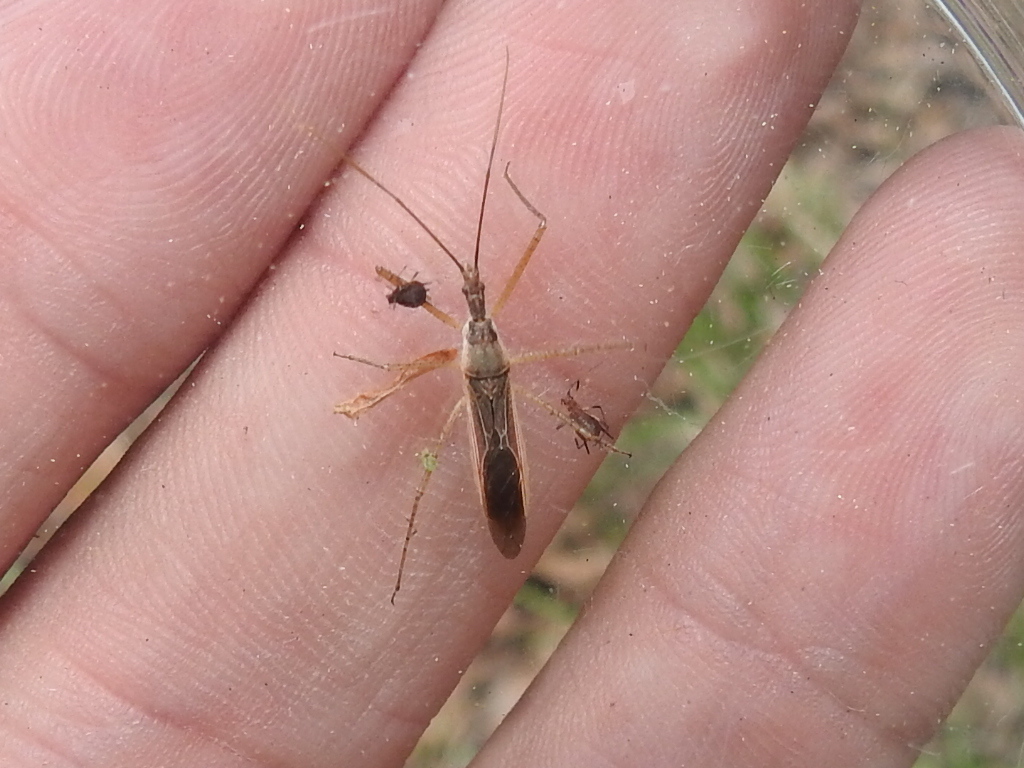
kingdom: Animalia
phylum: Arthropoda
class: Insecta
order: Hemiptera
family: Reduviidae
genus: Zelus
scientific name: Zelus cervicalis
